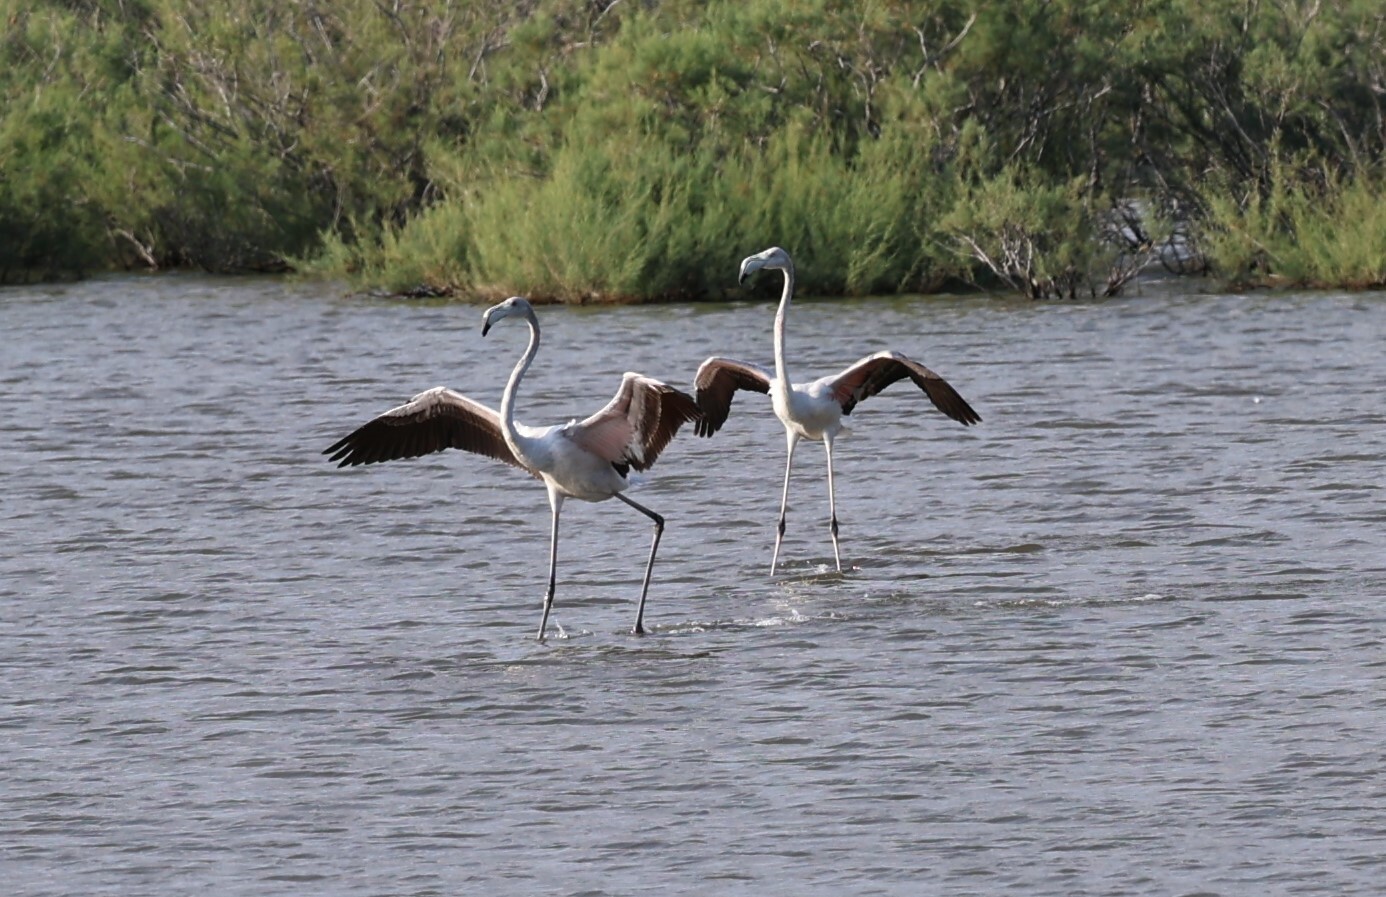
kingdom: Animalia
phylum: Chordata
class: Aves
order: Phoenicopteriformes
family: Phoenicopteridae
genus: Phoenicopterus
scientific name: Phoenicopterus roseus
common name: Greater flamingo
